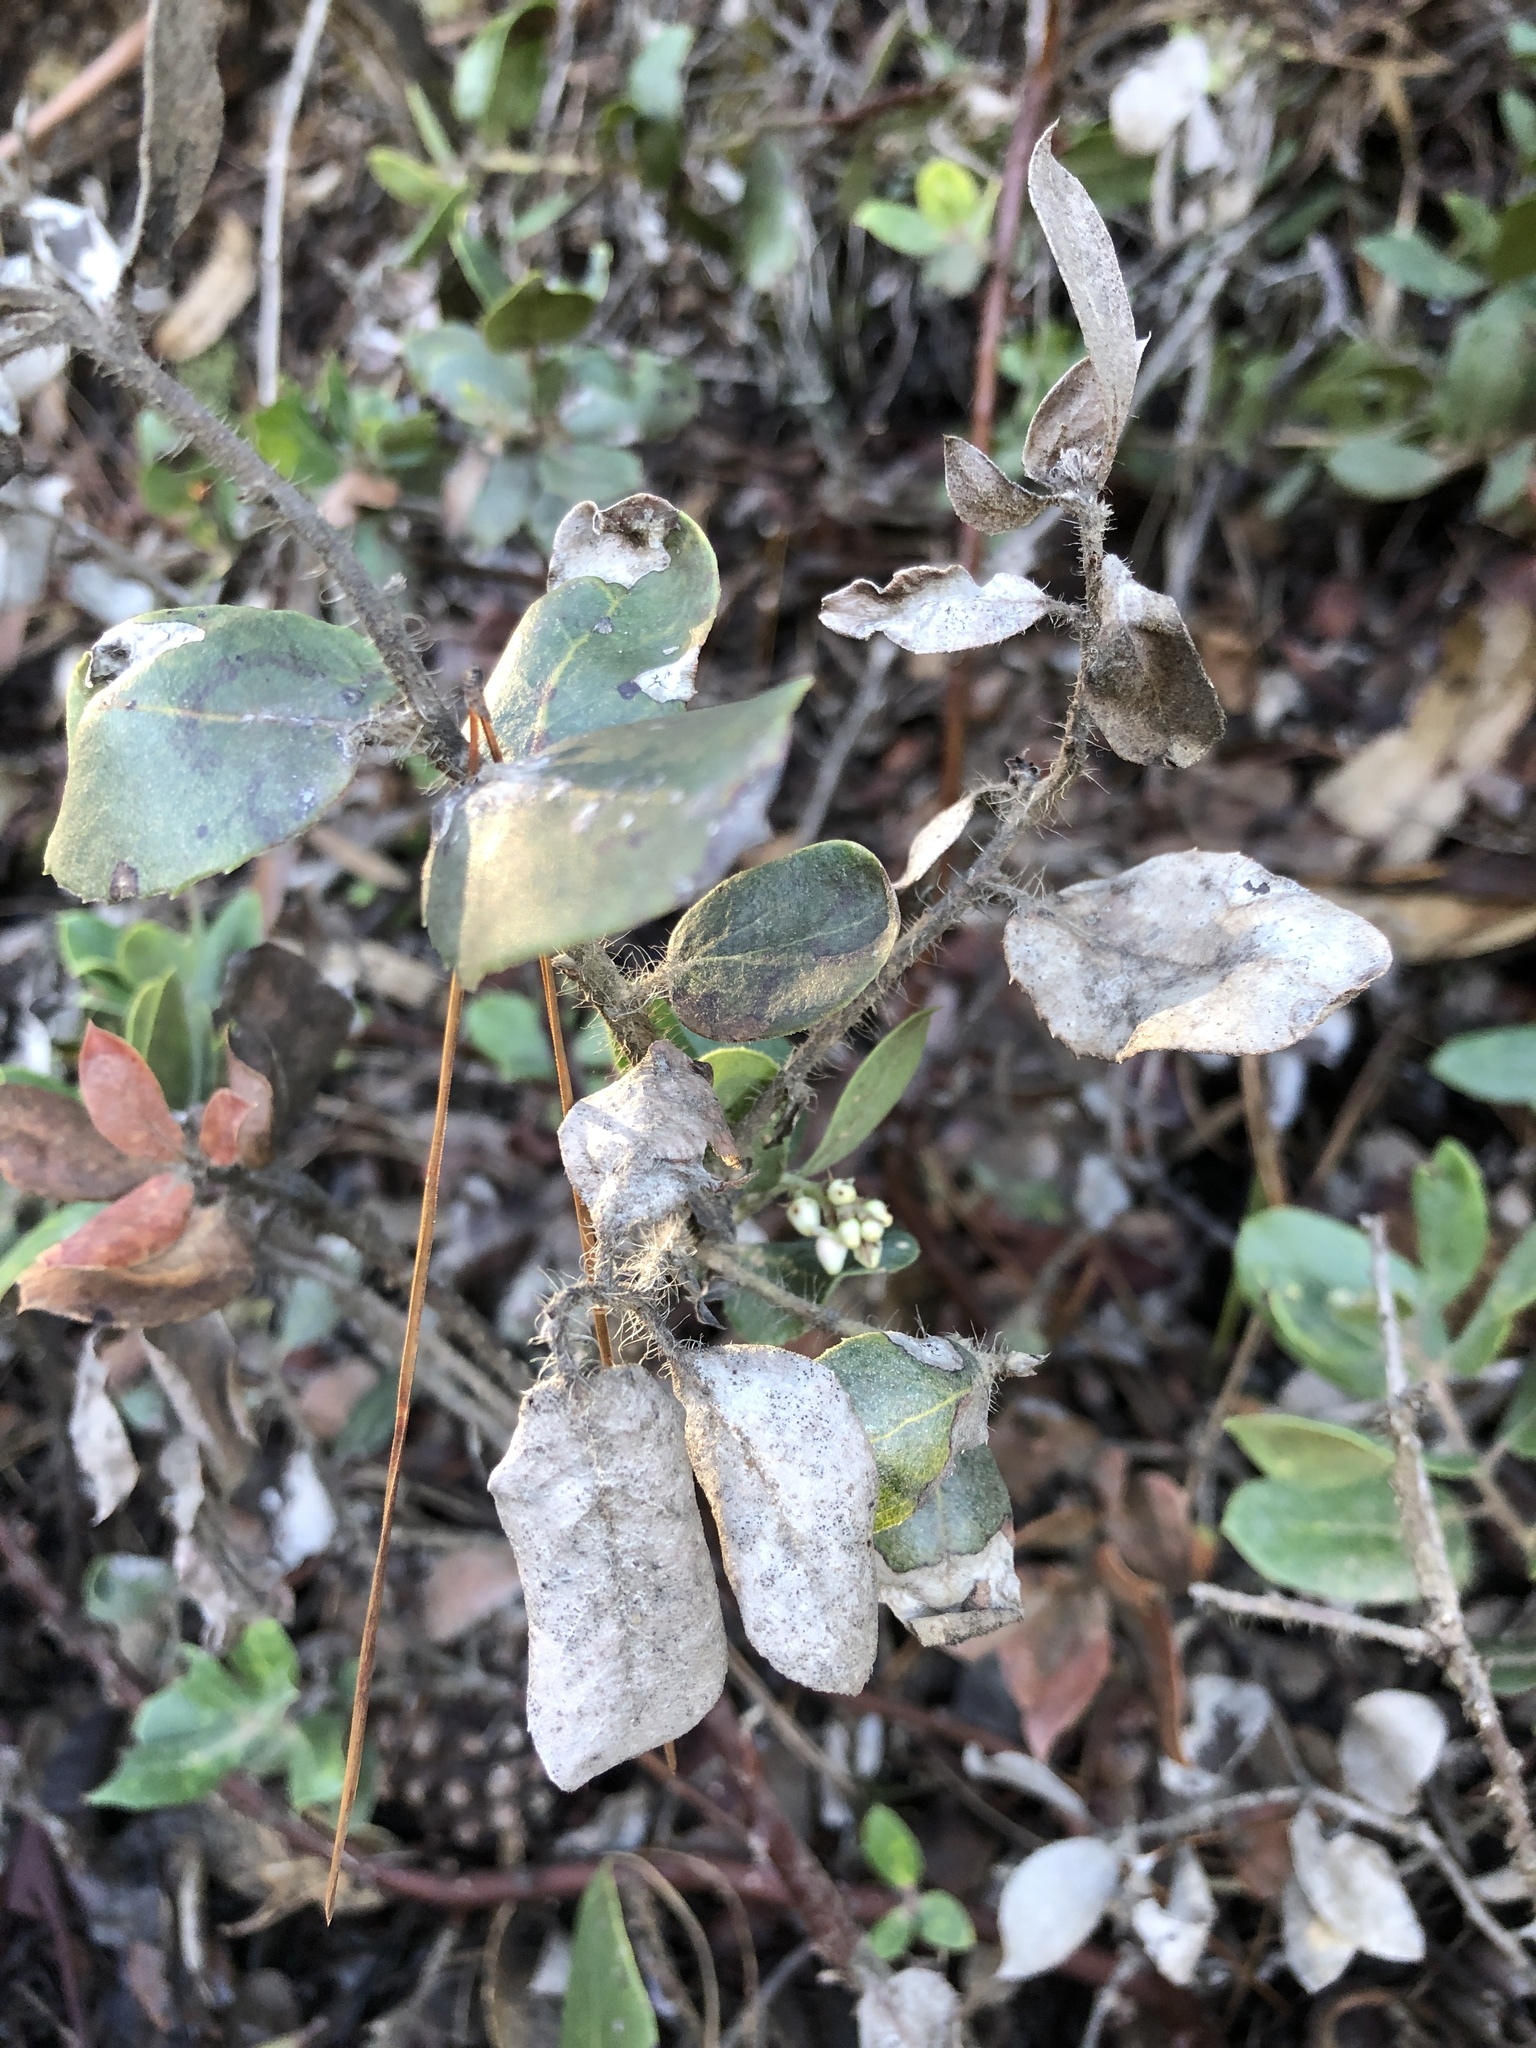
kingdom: Plantae
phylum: Tracheophyta
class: Magnoliopsida
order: Ericales
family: Ericaceae
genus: Arctostaphylos
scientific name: Arctostaphylos crustacea
